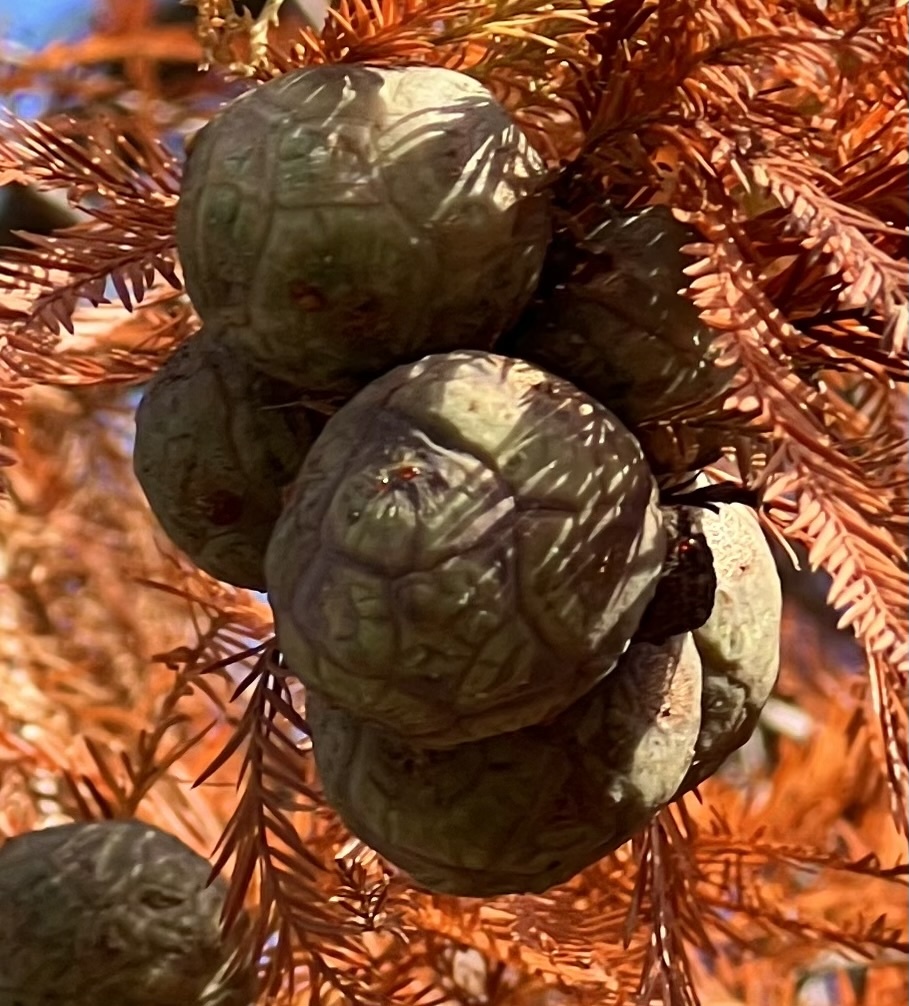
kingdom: Plantae
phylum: Tracheophyta
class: Pinopsida
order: Pinales
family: Cupressaceae
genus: Taxodium
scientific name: Taxodium distichum
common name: Bald cypress
